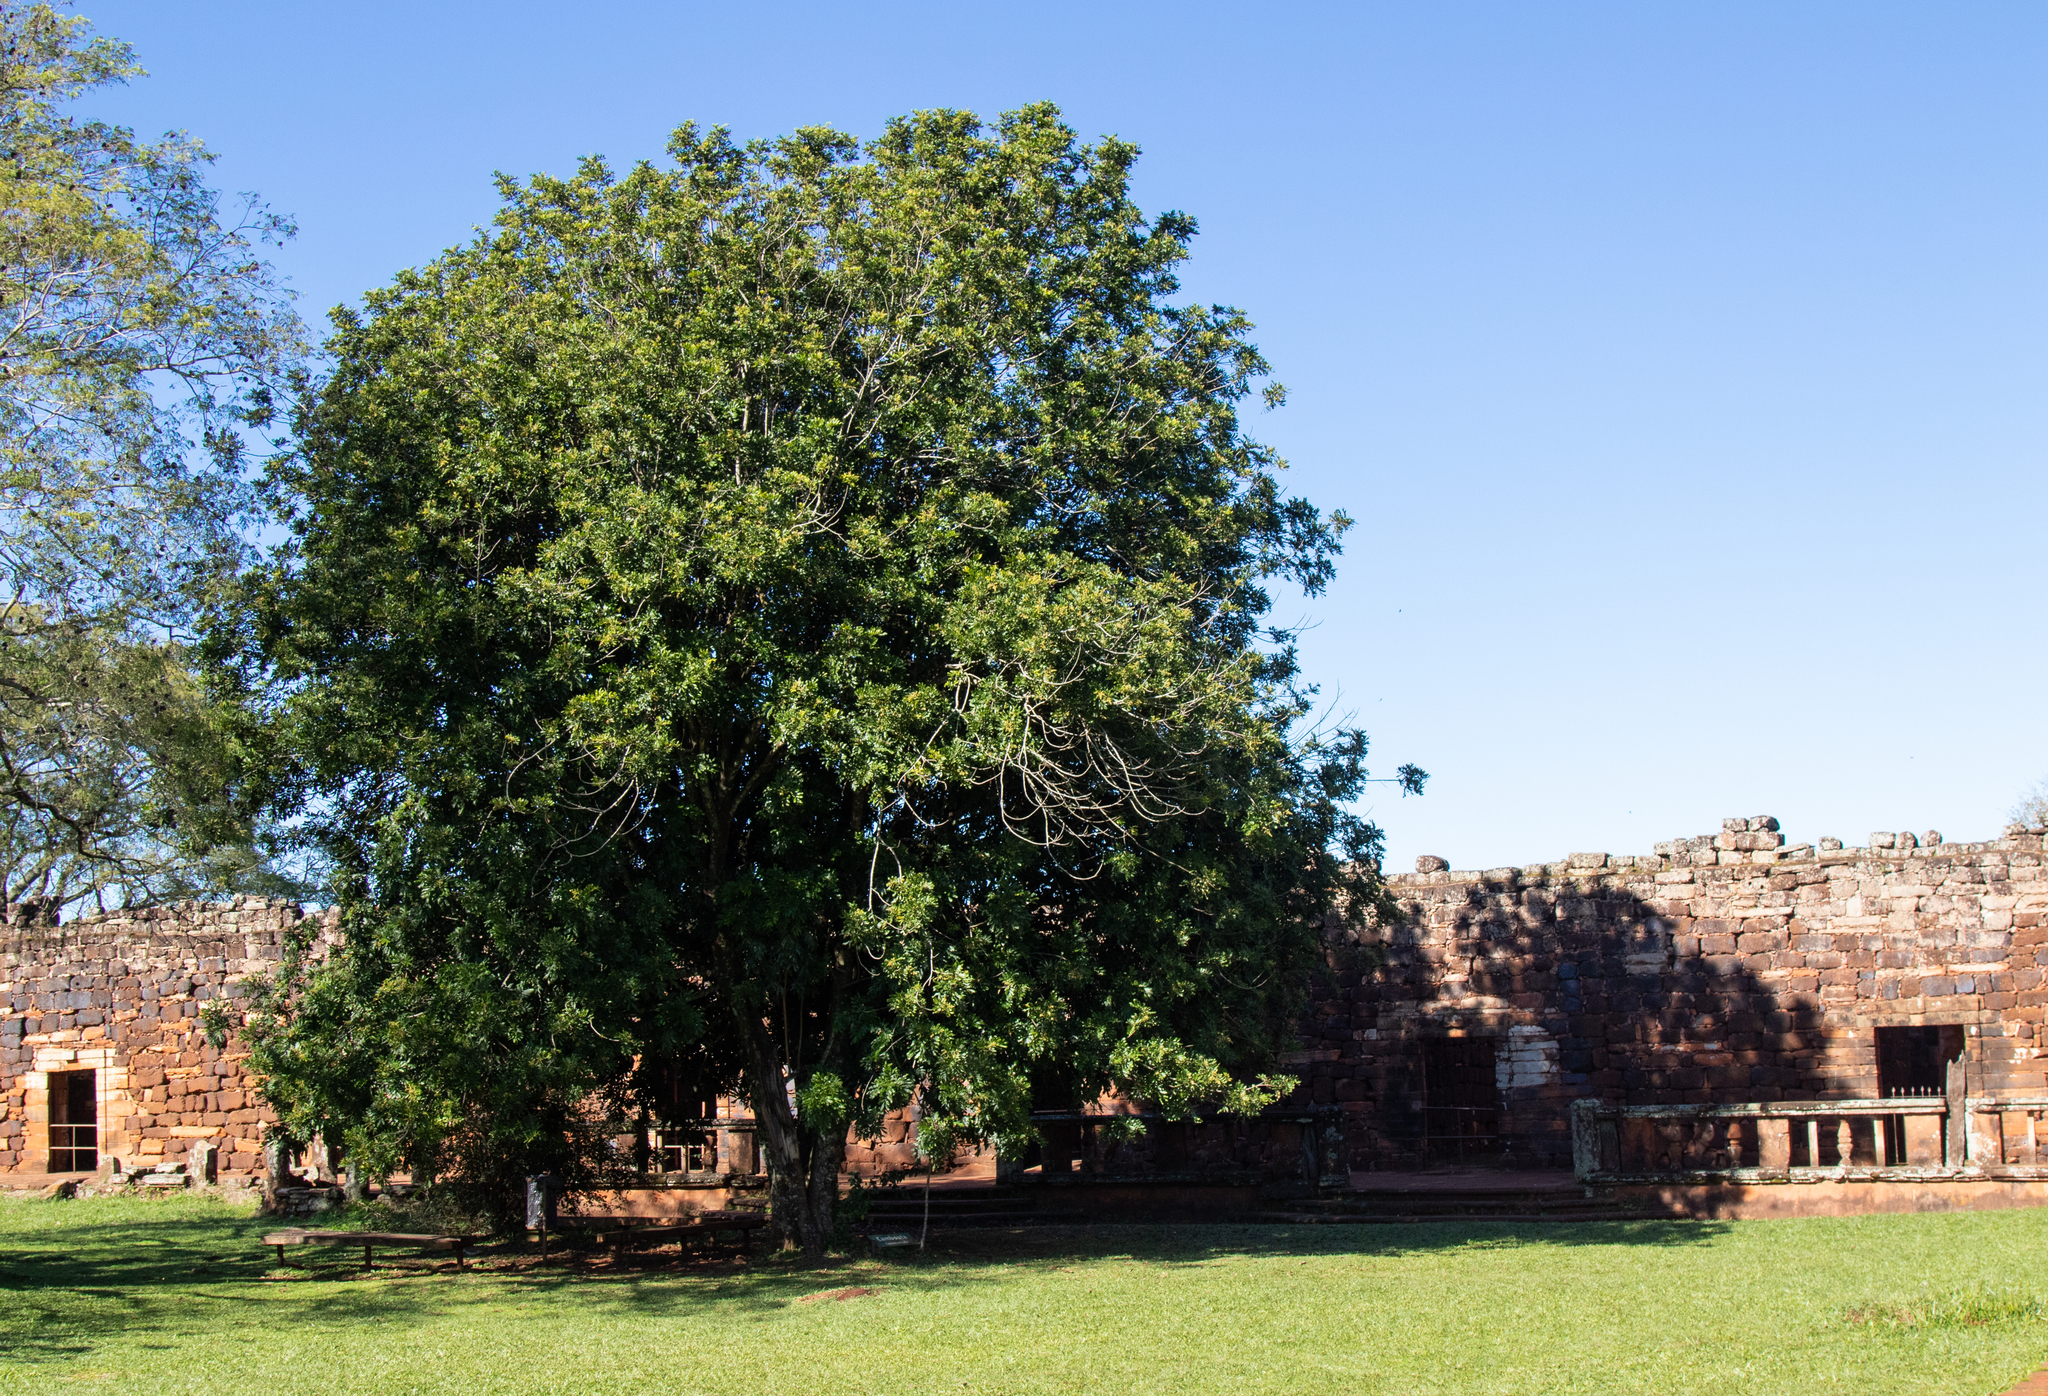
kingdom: Plantae
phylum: Tracheophyta
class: Magnoliopsida
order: Sapindales
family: Sapindaceae
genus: Cupania
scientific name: Cupania vernalis
